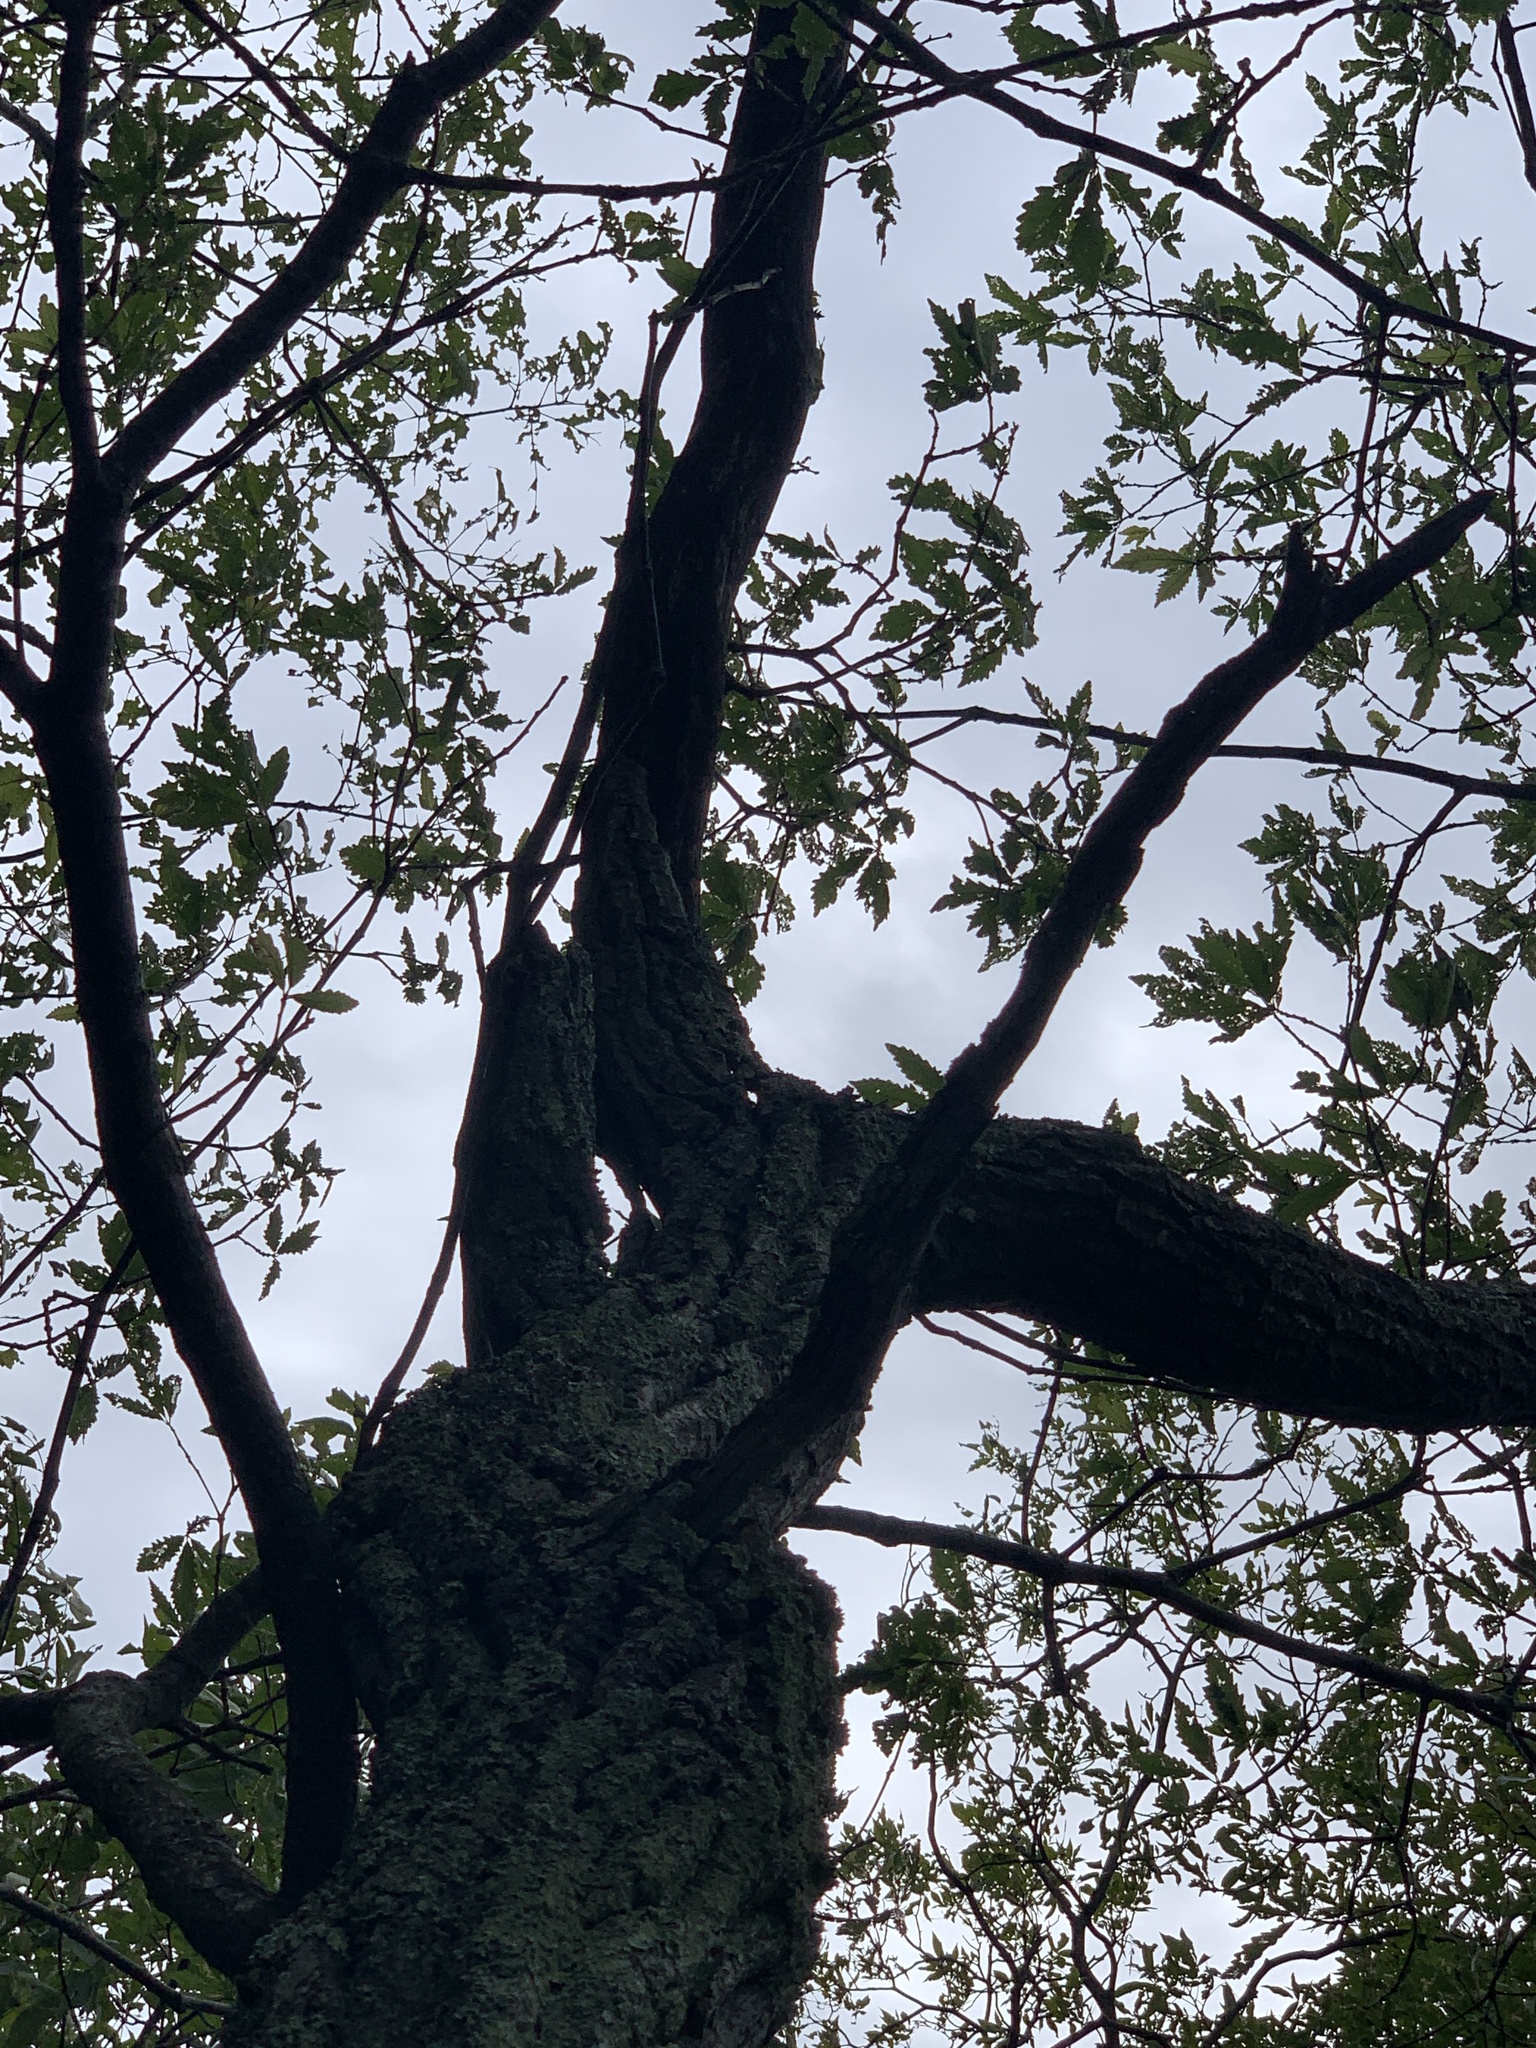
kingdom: Plantae
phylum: Tracheophyta
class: Magnoliopsida
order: Fagales
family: Fagaceae
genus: Quercus
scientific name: Quercus montana
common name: Chestnut oak
